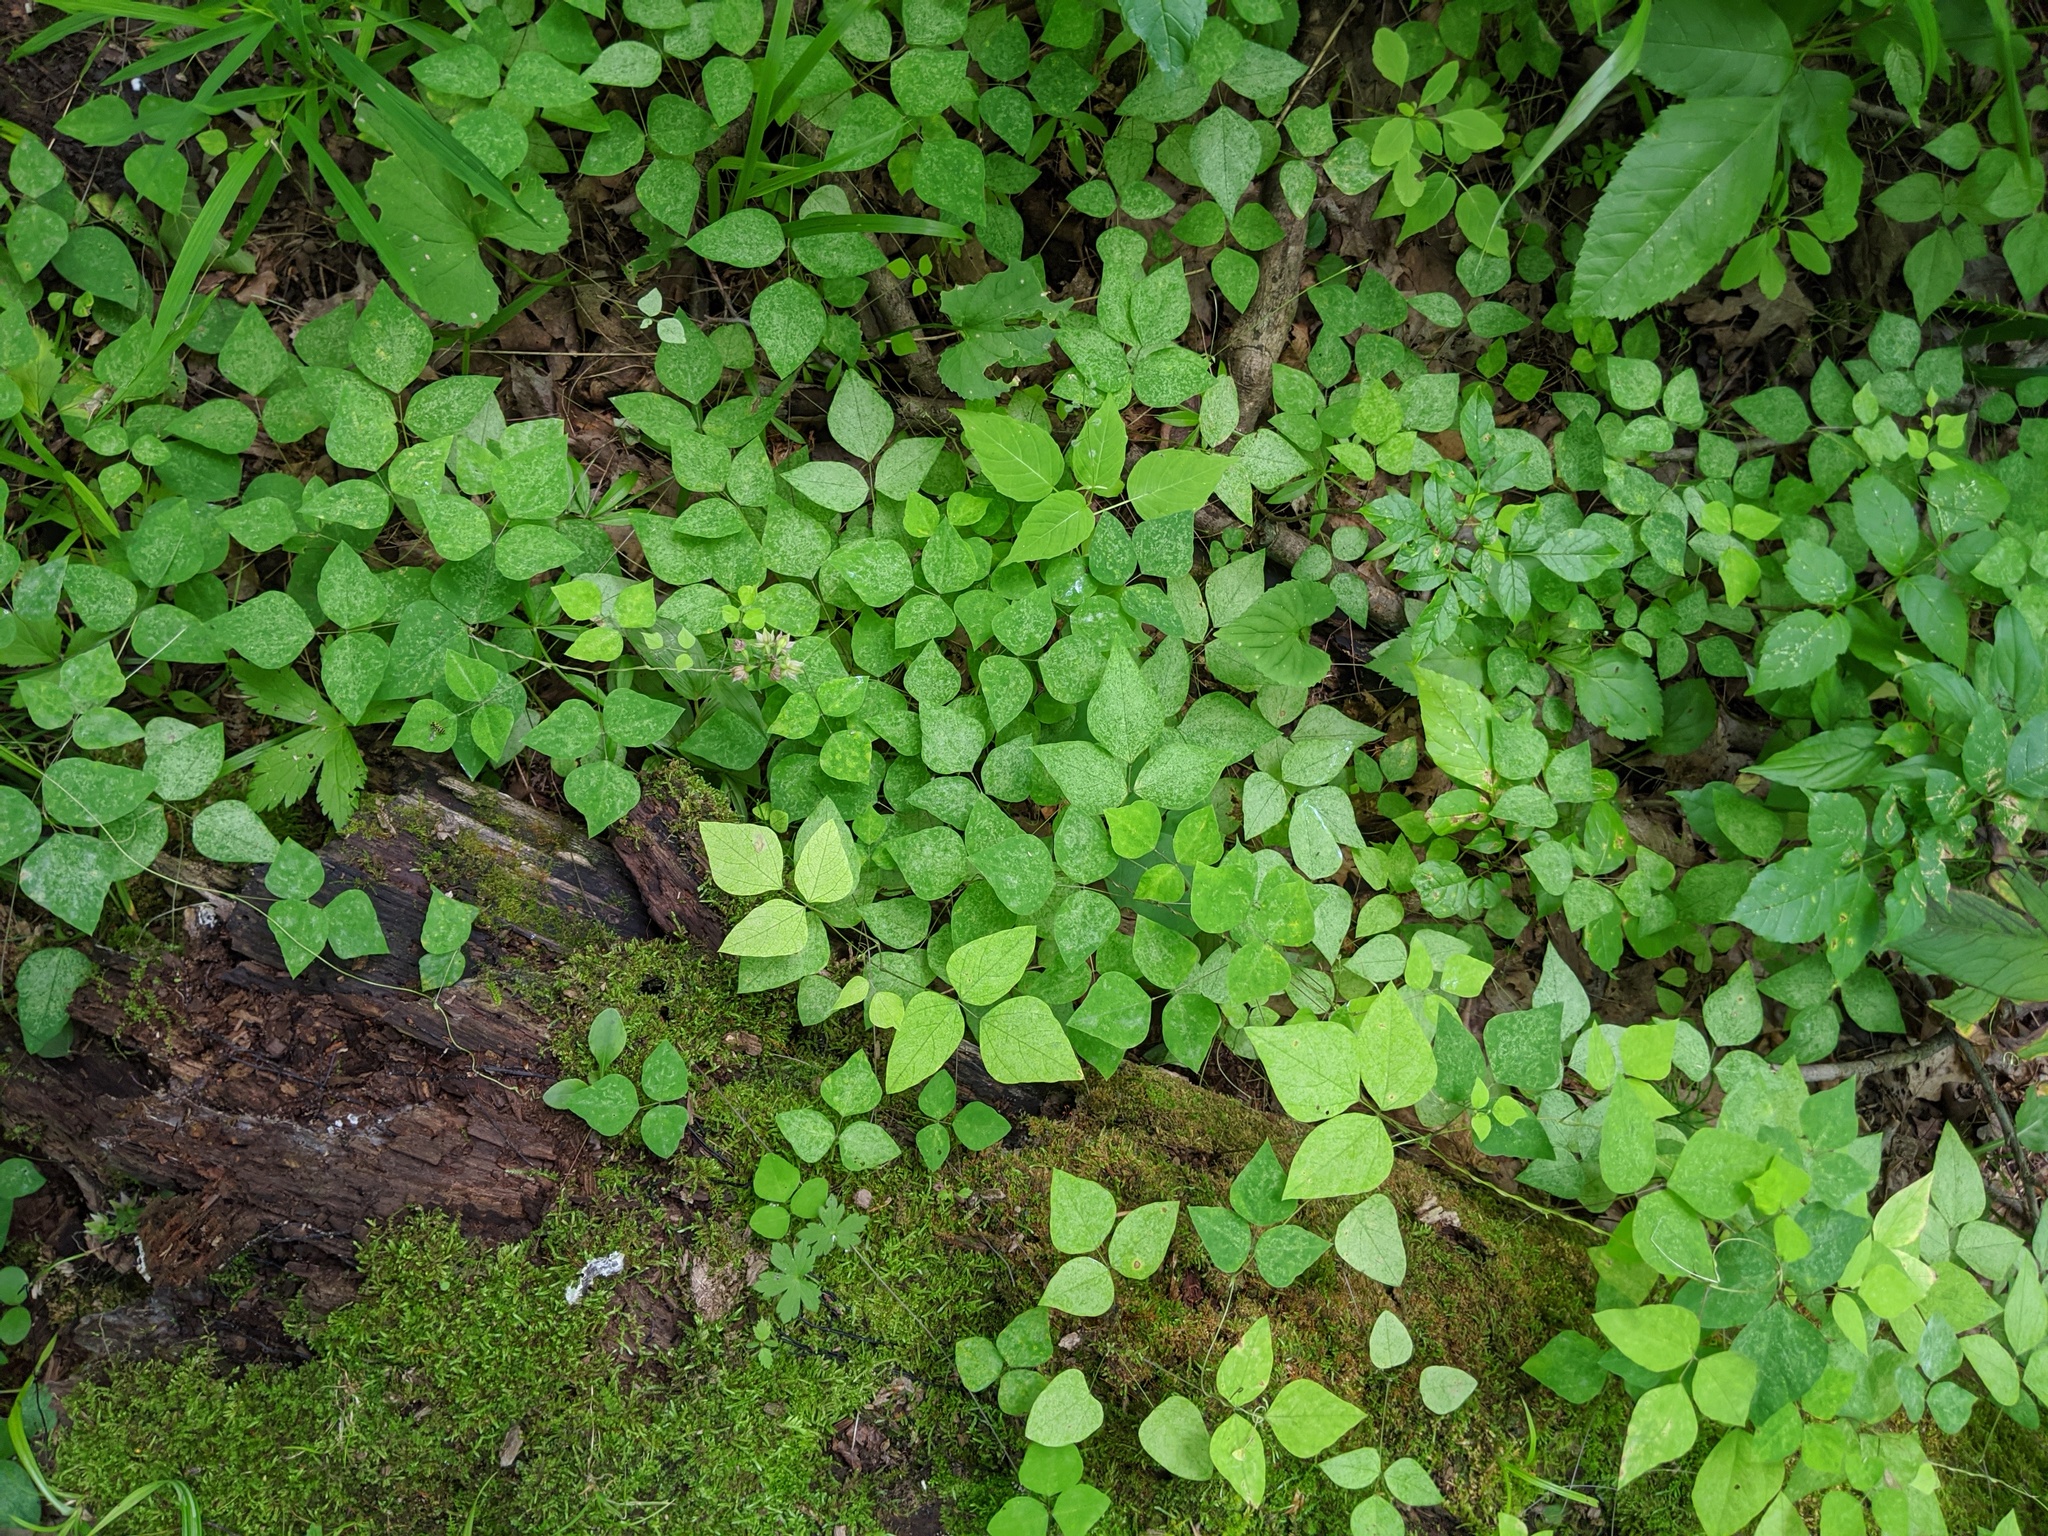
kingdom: Plantae
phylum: Tracheophyta
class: Magnoliopsida
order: Fabales
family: Fabaceae
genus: Amphicarpaea
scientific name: Amphicarpaea bracteata
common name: American hog peanut
